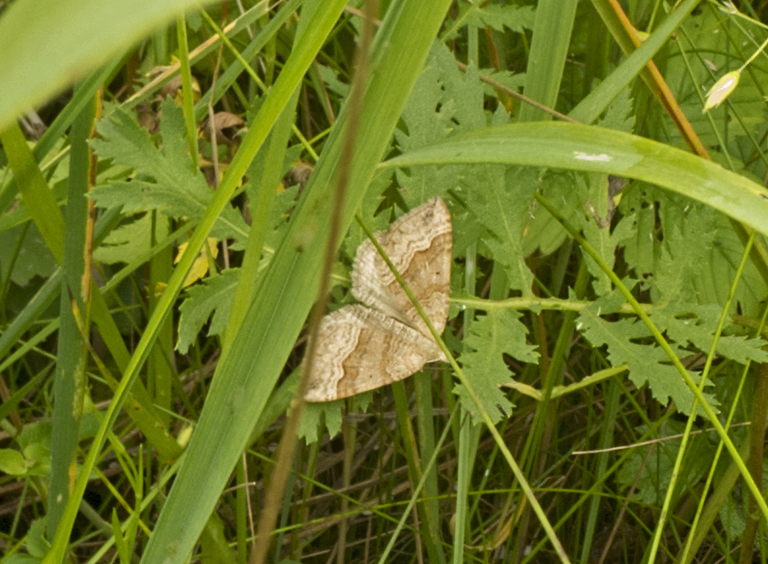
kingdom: Animalia
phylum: Arthropoda
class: Insecta
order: Lepidoptera
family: Geometridae
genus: Scotopteryx
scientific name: Scotopteryx chenopodiata
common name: Shaded broad-bar
